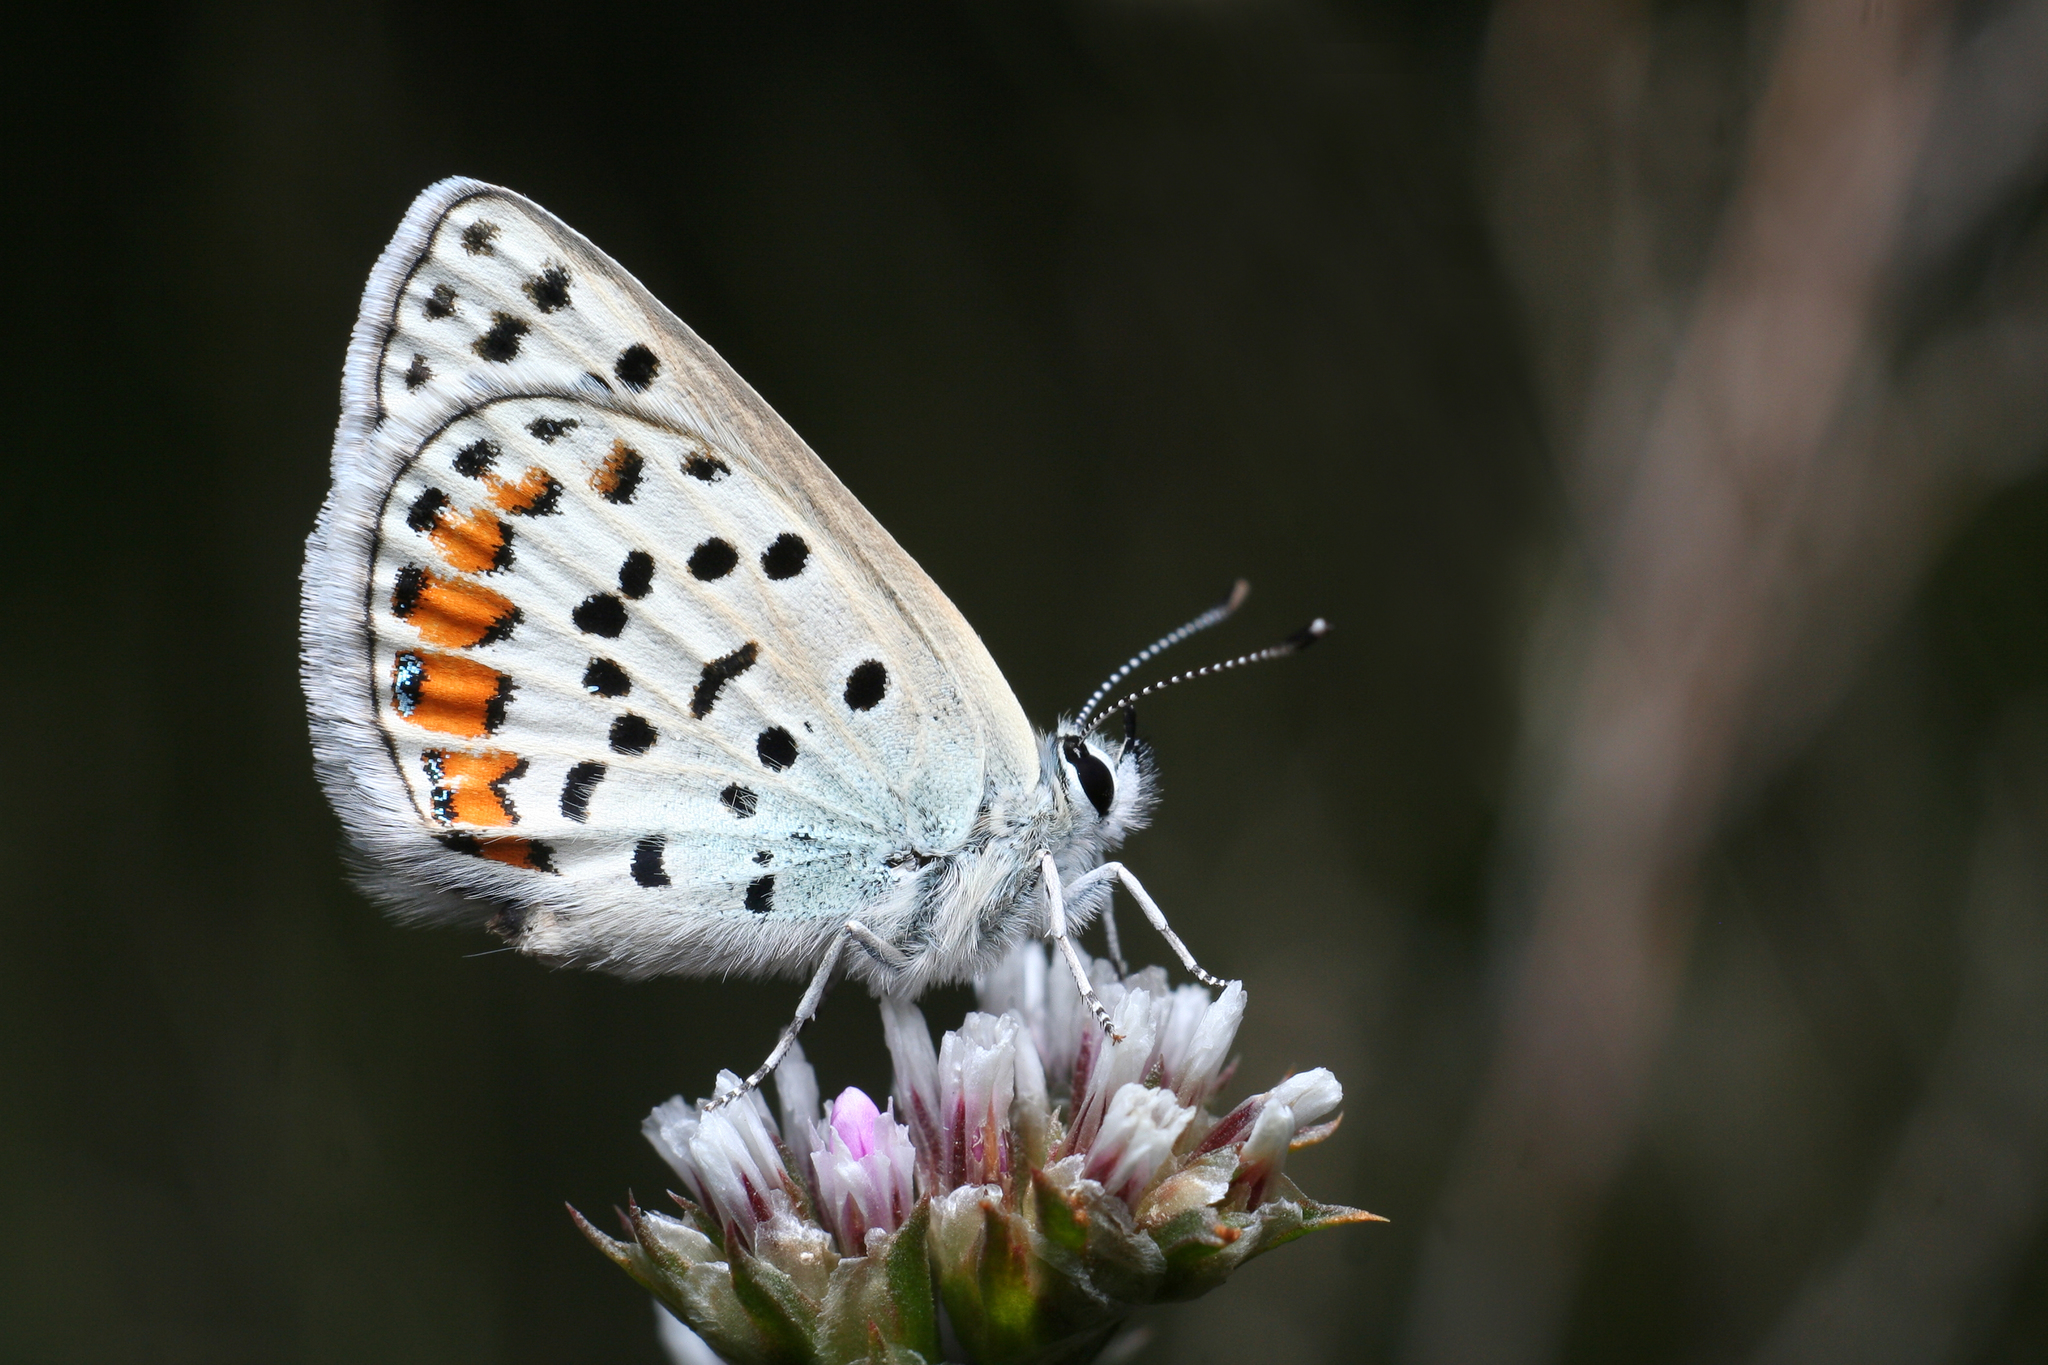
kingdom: Animalia
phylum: Arthropoda
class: Insecta
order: Lepidoptera
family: Lycaenidae
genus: Glabroculus
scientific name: Glabroculus cyane
